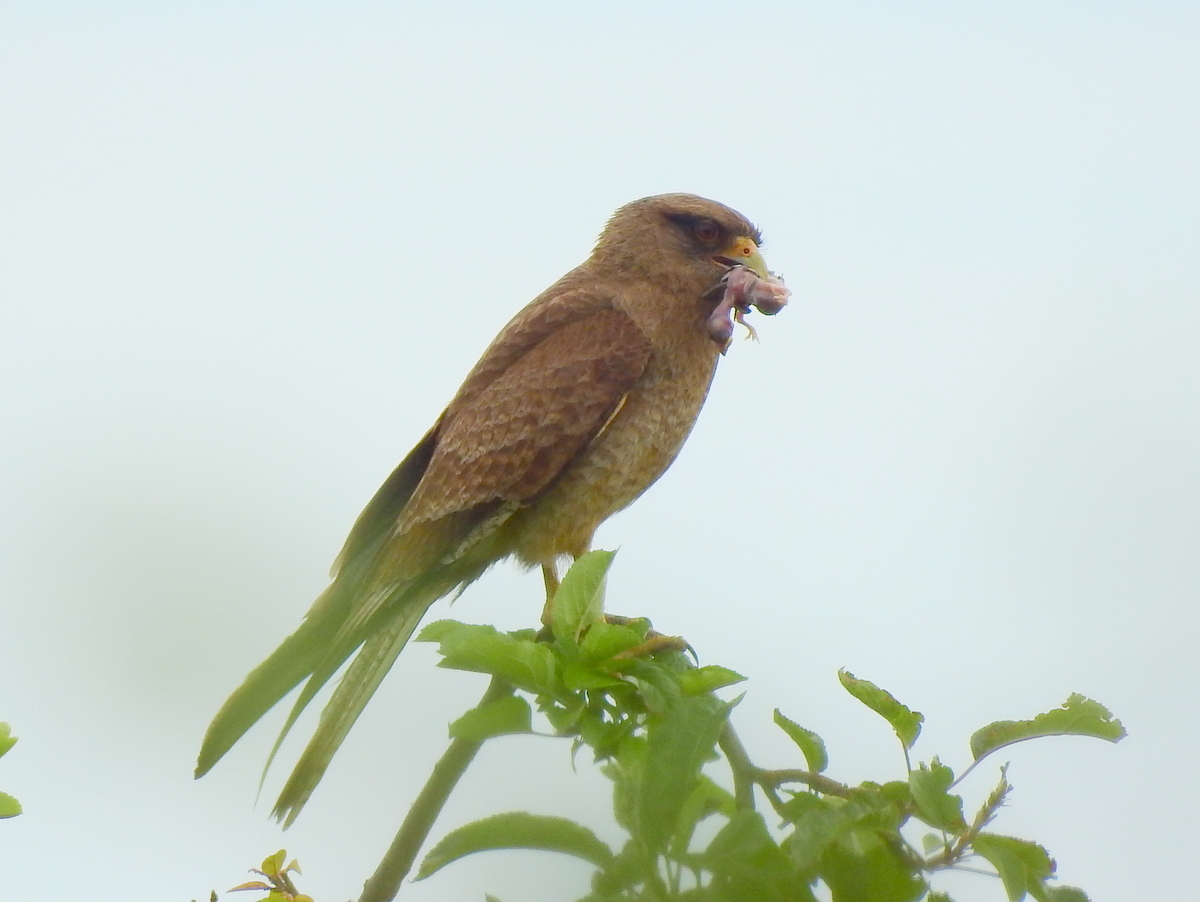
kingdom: Animalia
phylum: Chordata
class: Aves
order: Falconiformes
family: Falconidae
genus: Daptrius
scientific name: Daptrius
